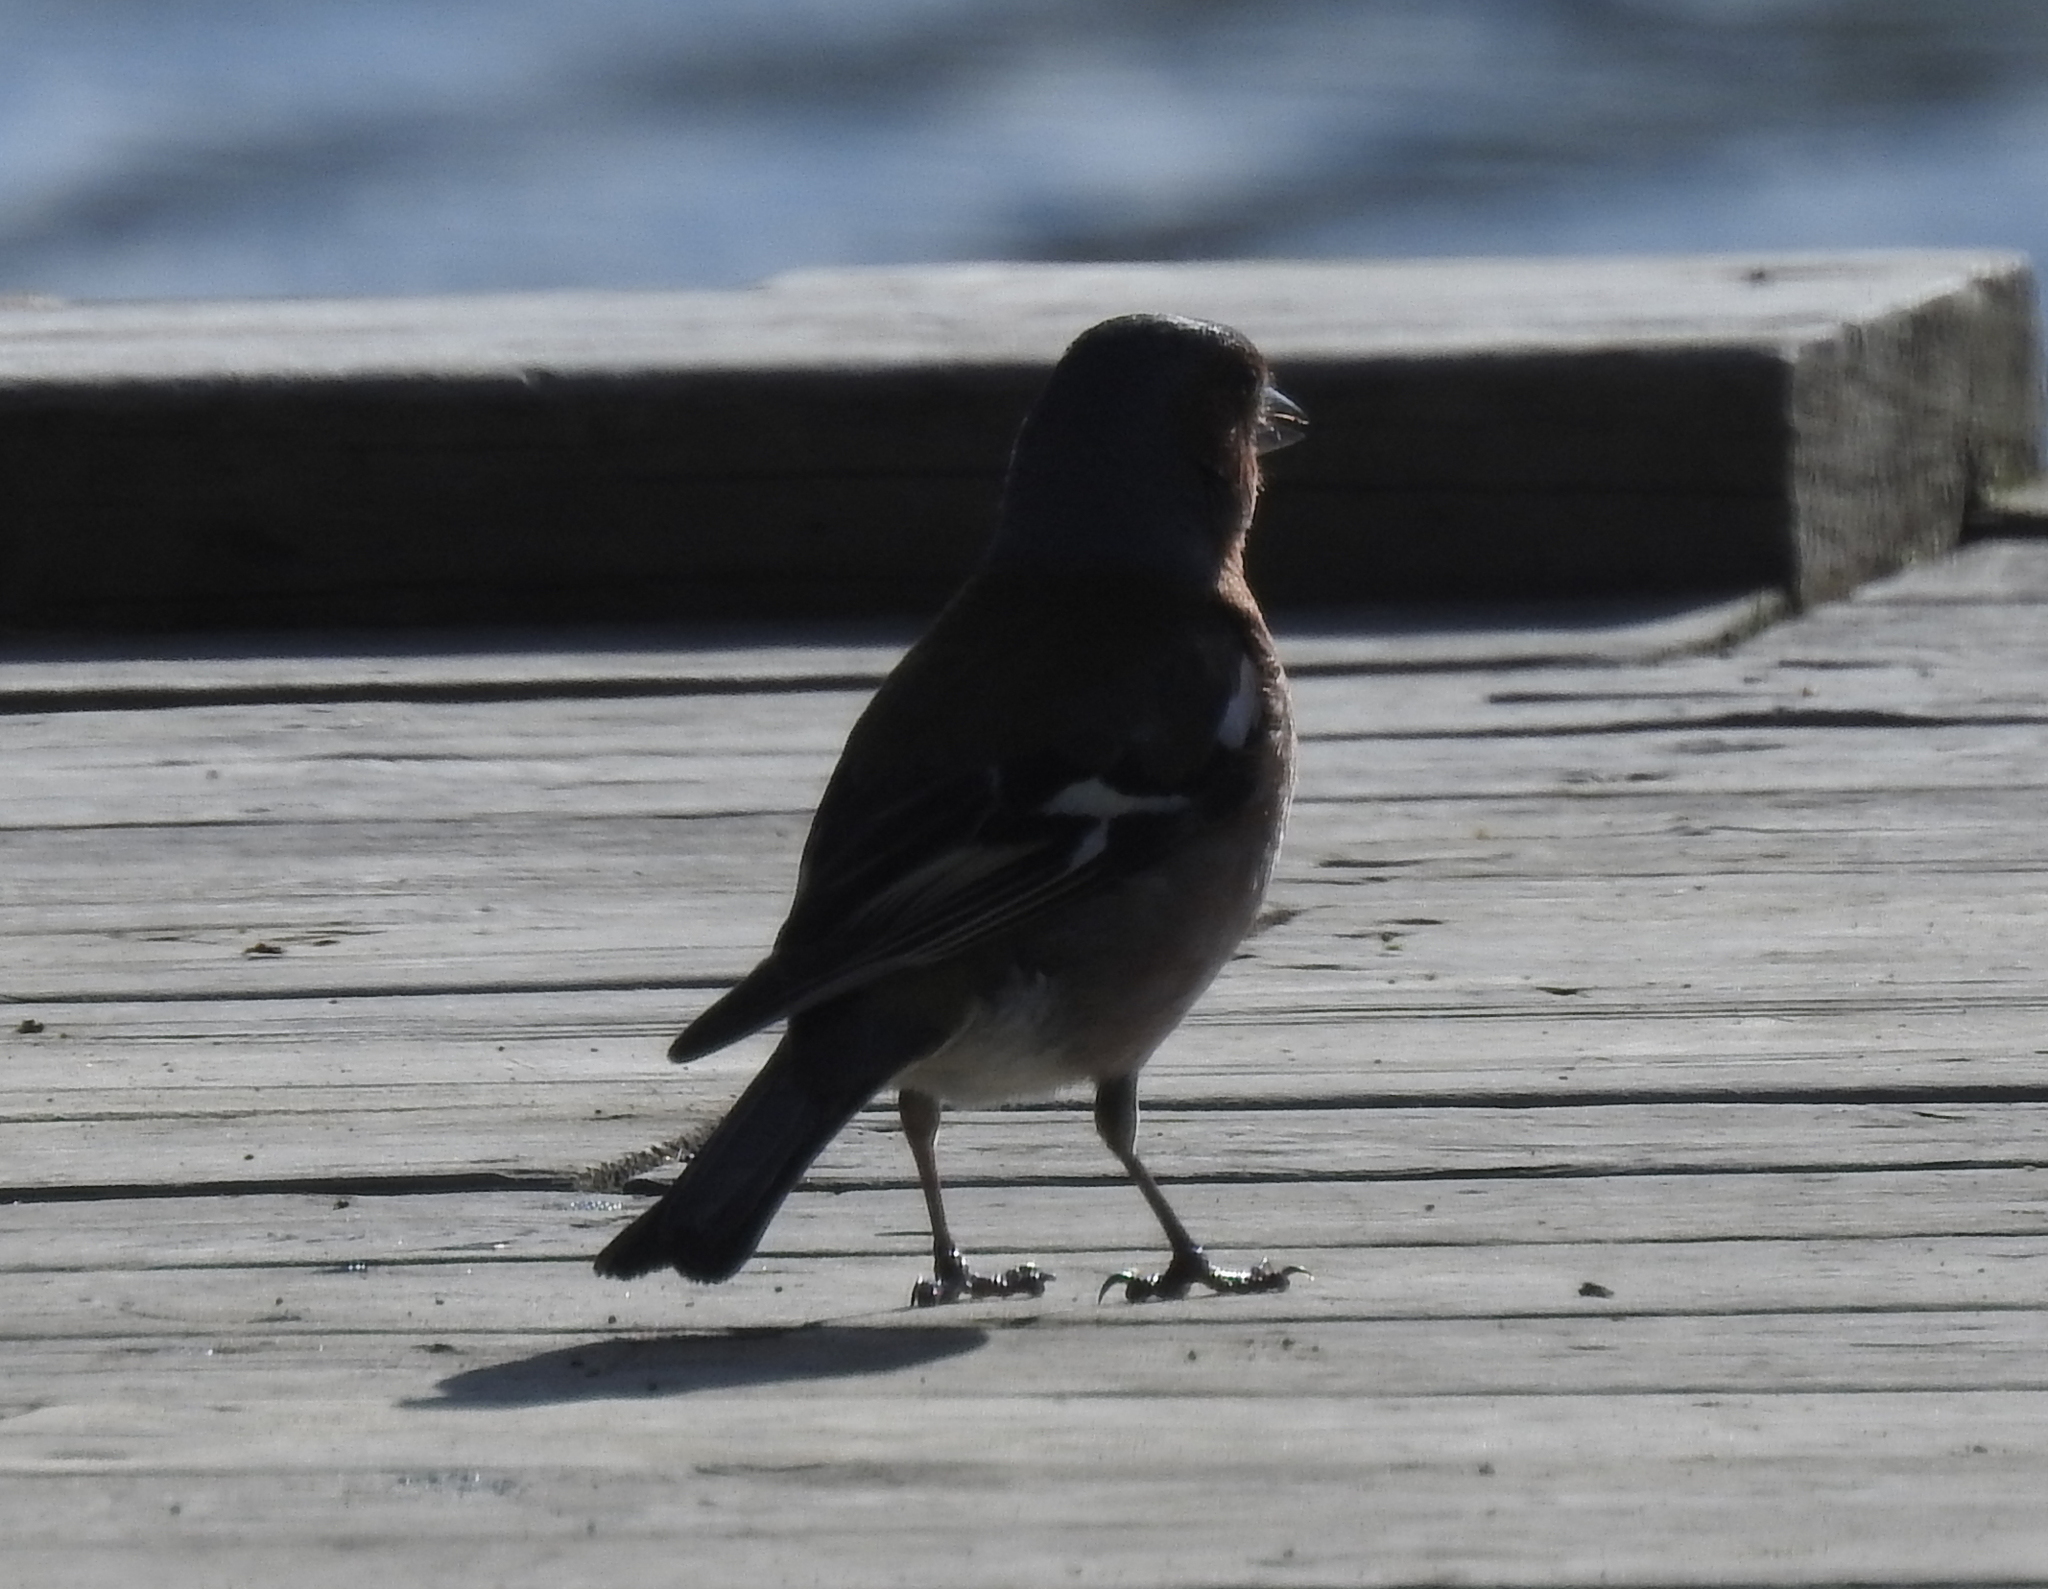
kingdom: Animalia
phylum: Chordata
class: Aves
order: Passeriformes
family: Fringillidae
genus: Fringilla
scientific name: Fringilla coelebs
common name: Common chaffinch
